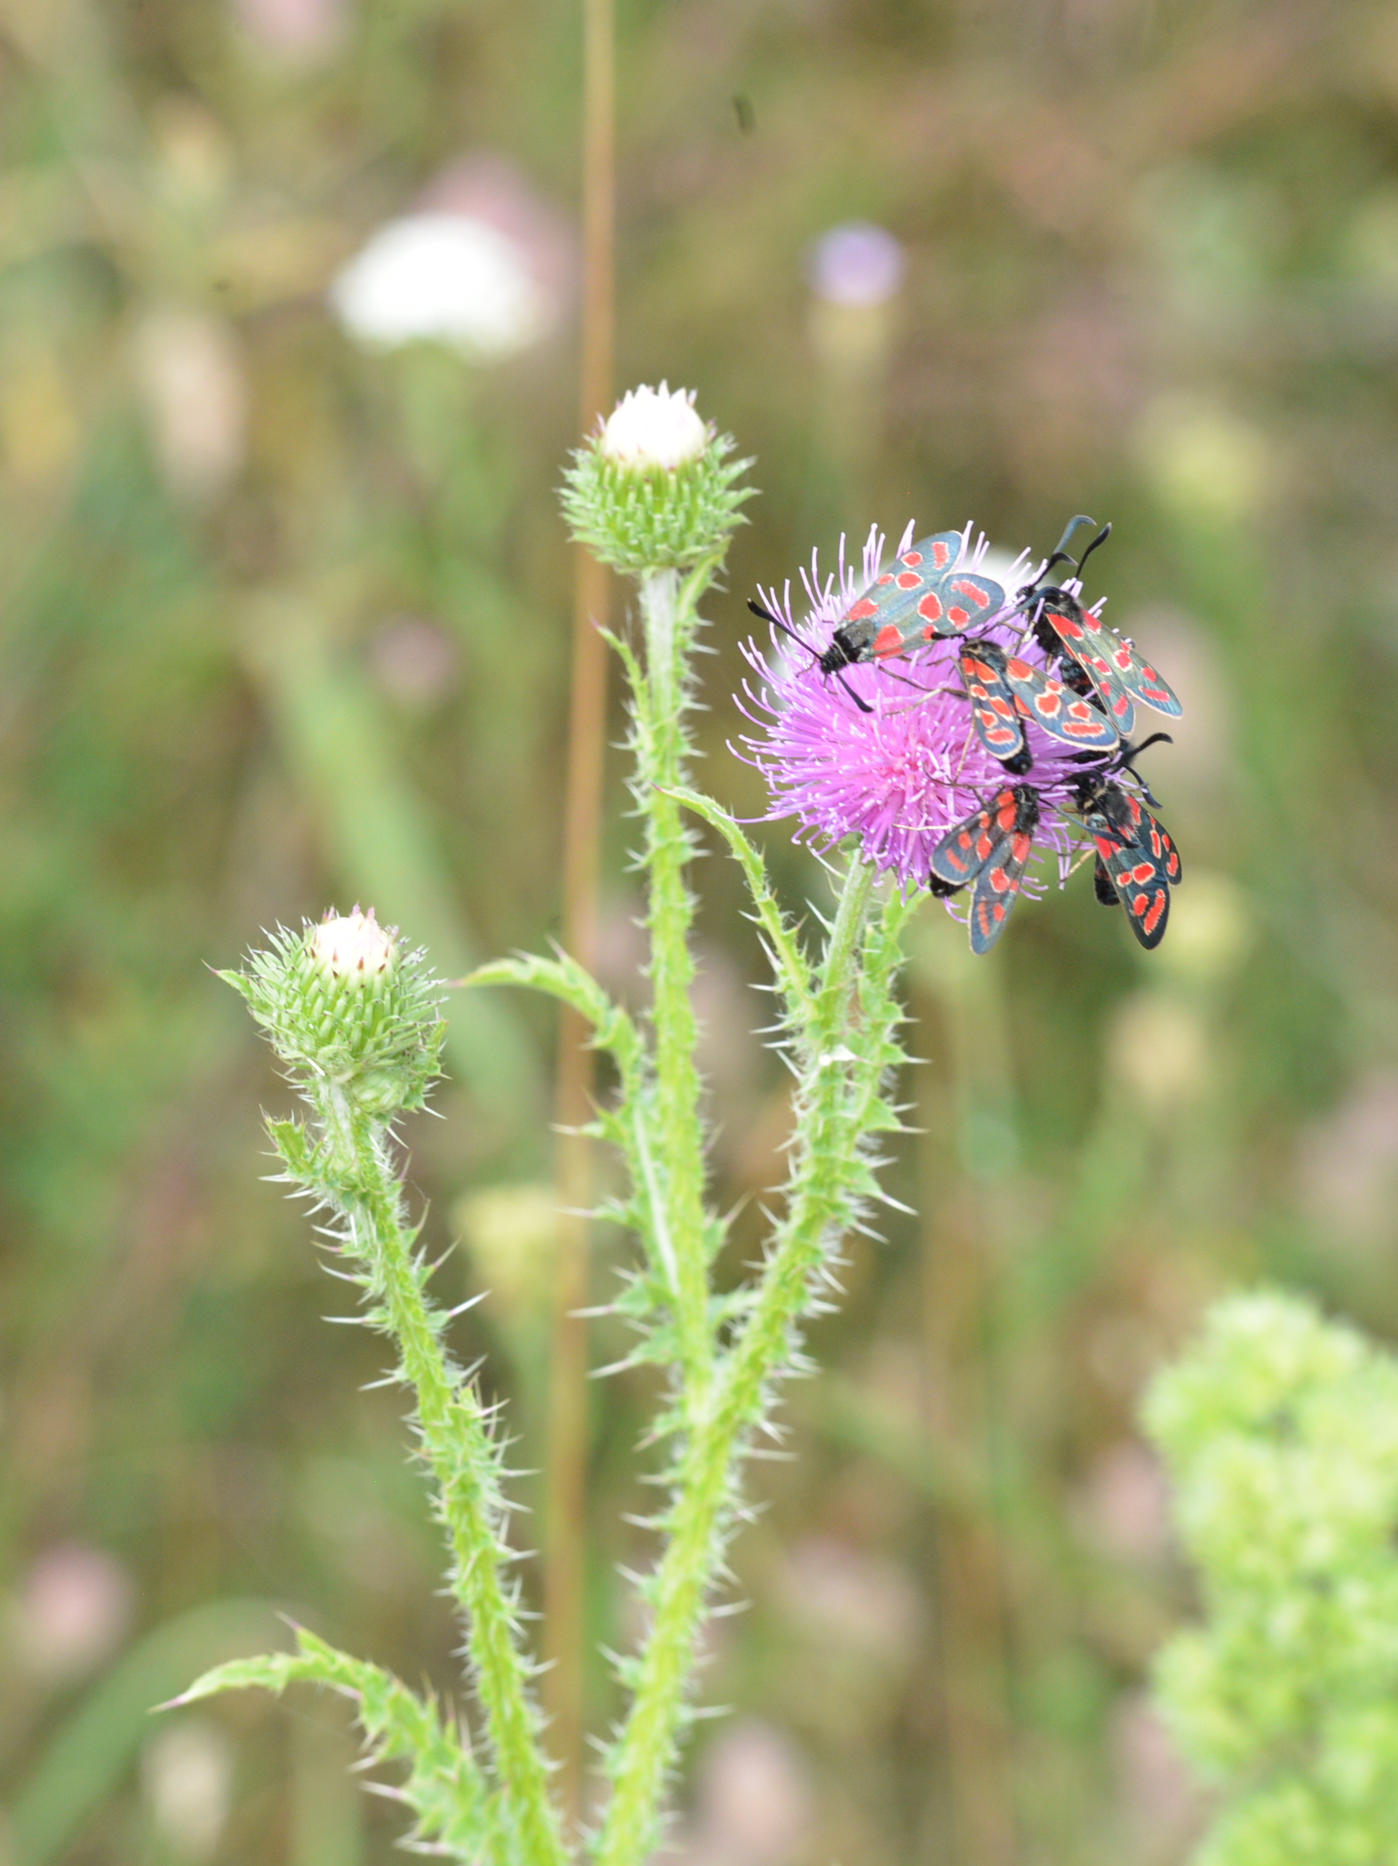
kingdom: Plantae
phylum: Tracheophyta
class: Magnoliopsida
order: Asterales
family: Asteraceae
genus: Carduus
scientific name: Carduus acanthoides
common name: Plumeless thistle
